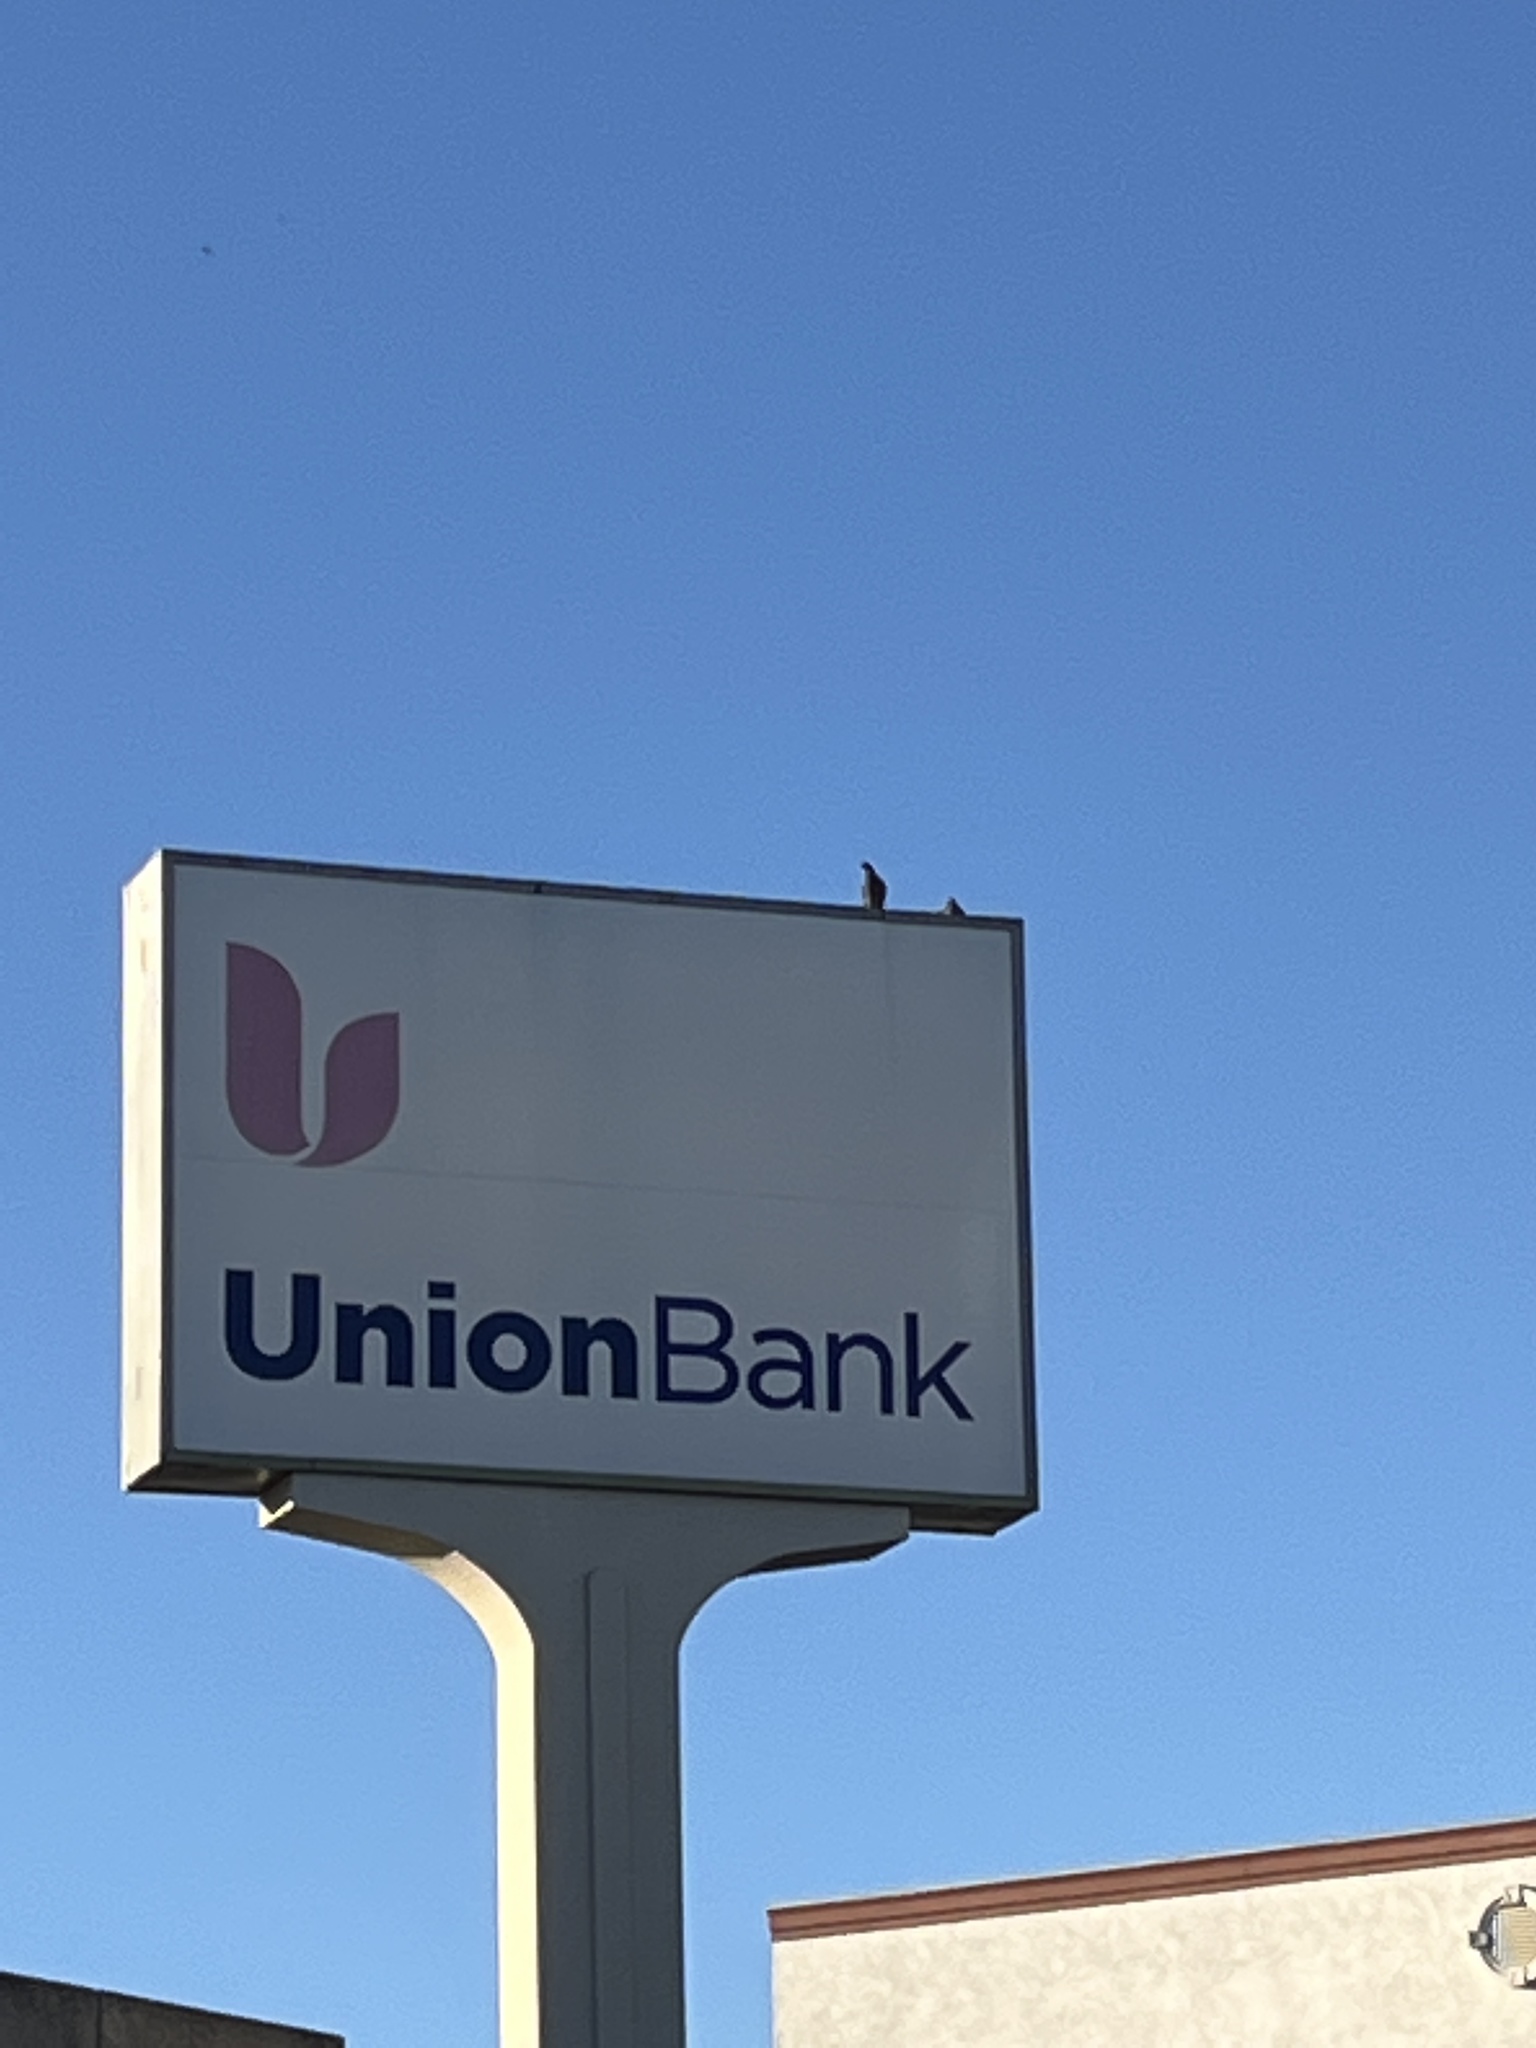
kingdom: Animalia
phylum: Chordata
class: Aves
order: Columbiformes
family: Columbidae
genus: Columba
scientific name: Columba livia
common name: Rock pigeon
